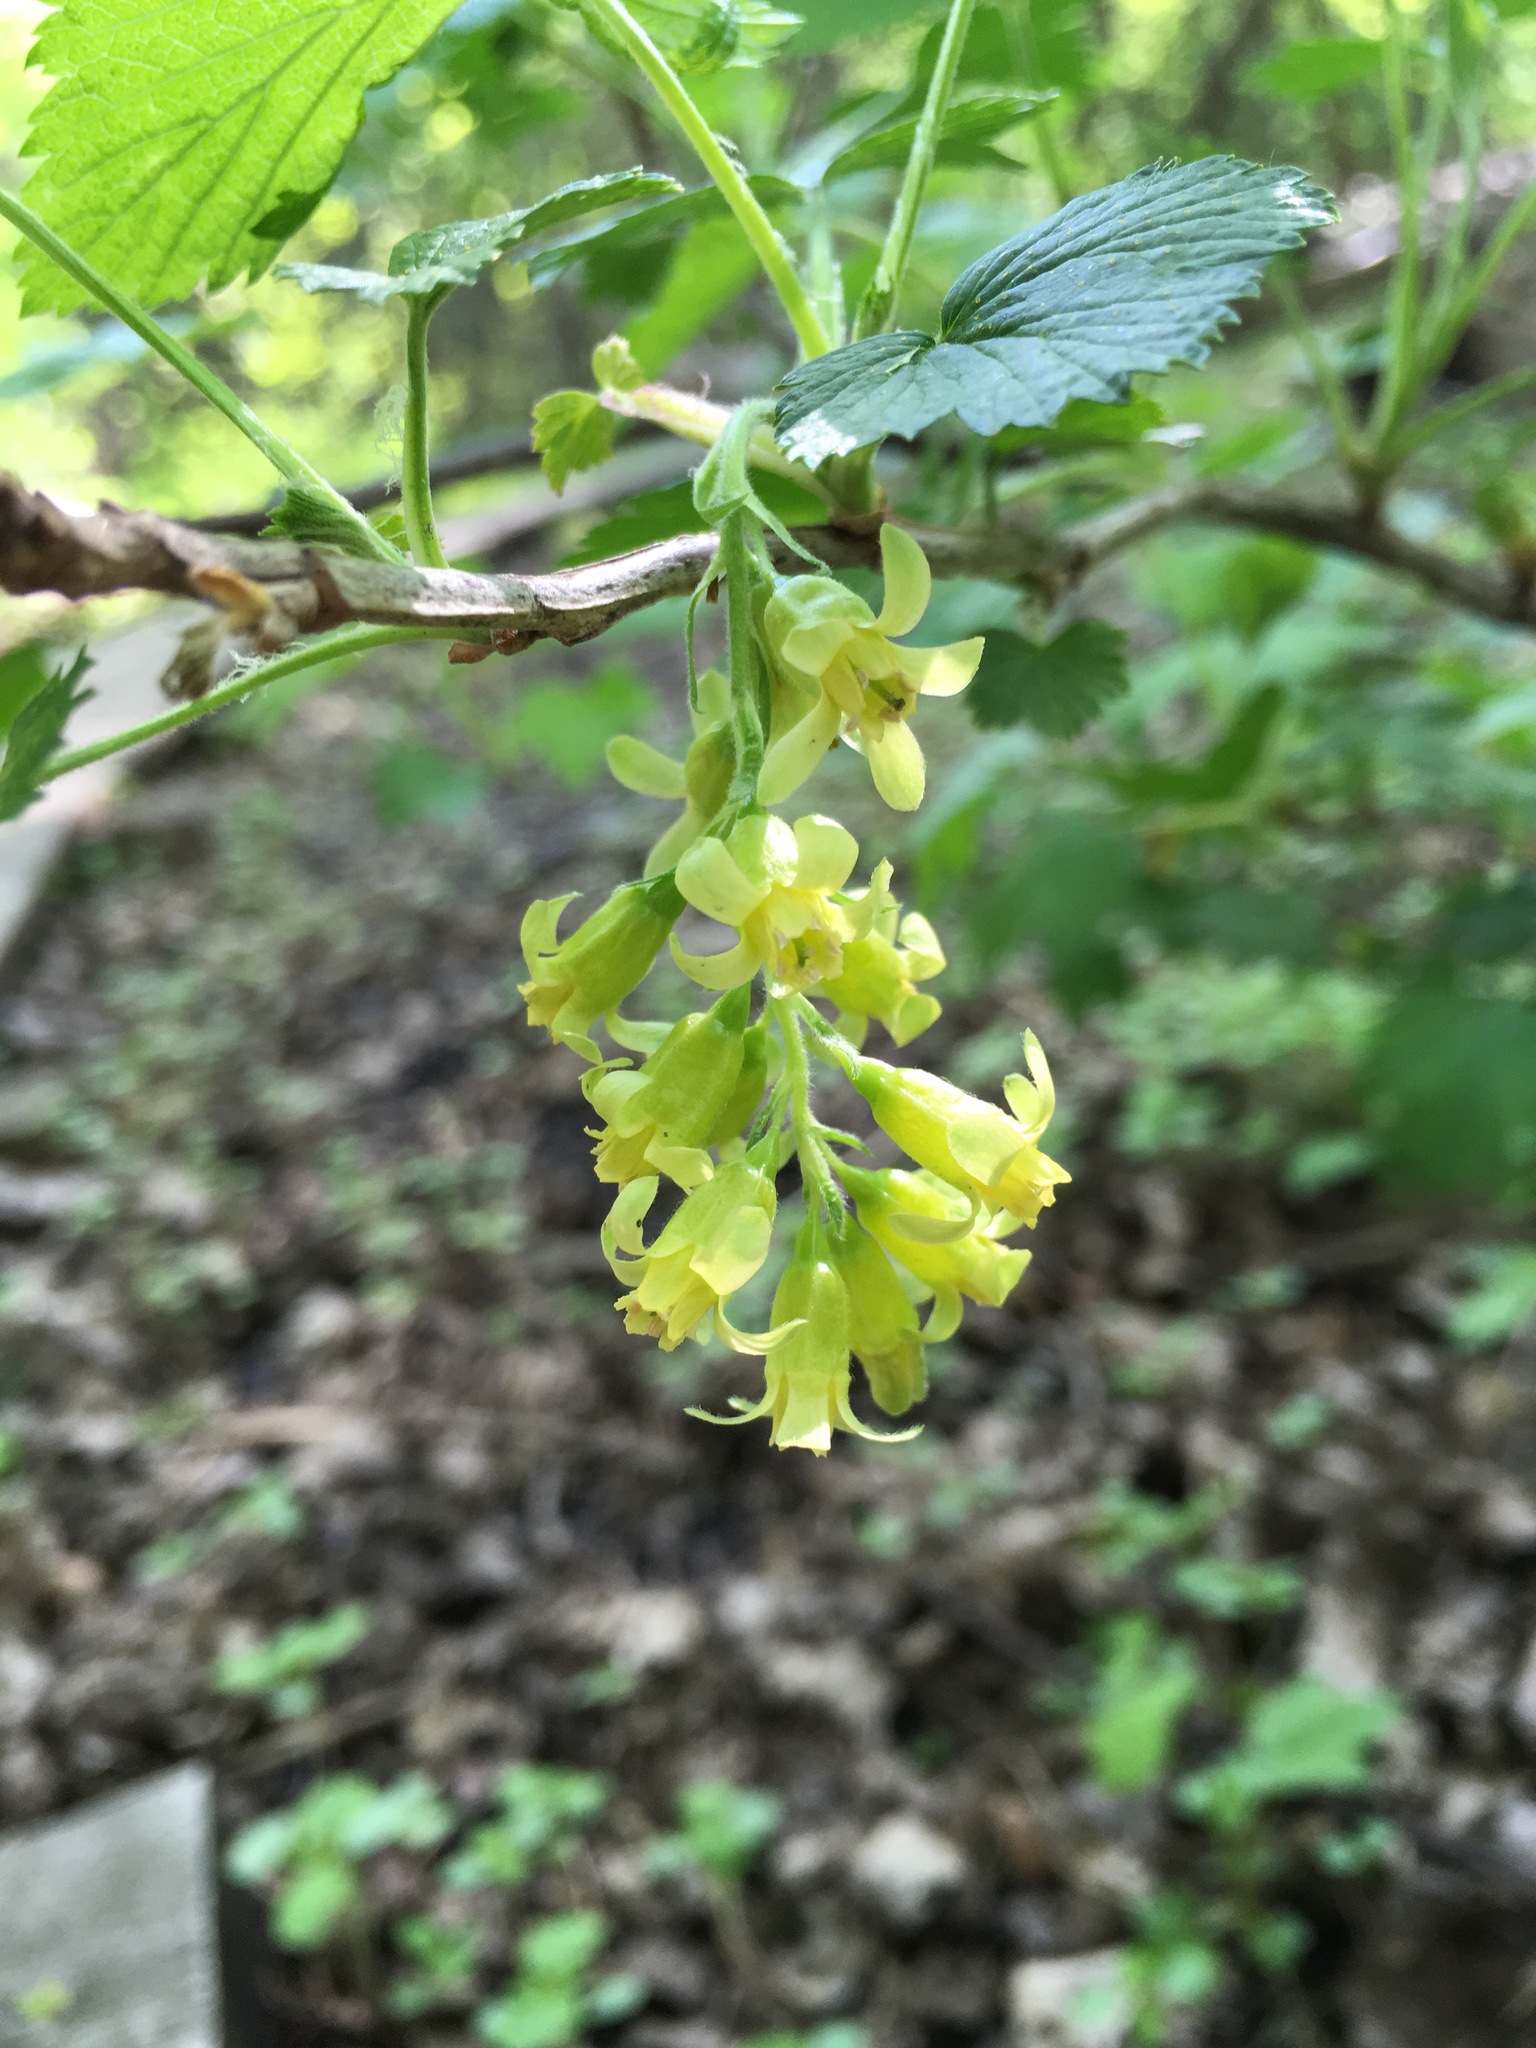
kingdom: Plantae
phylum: Tracheophyta
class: Magnoliopsida
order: Saxifragales
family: Grossulariaceae
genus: Ribes
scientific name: Ribes americanum
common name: American black currant
